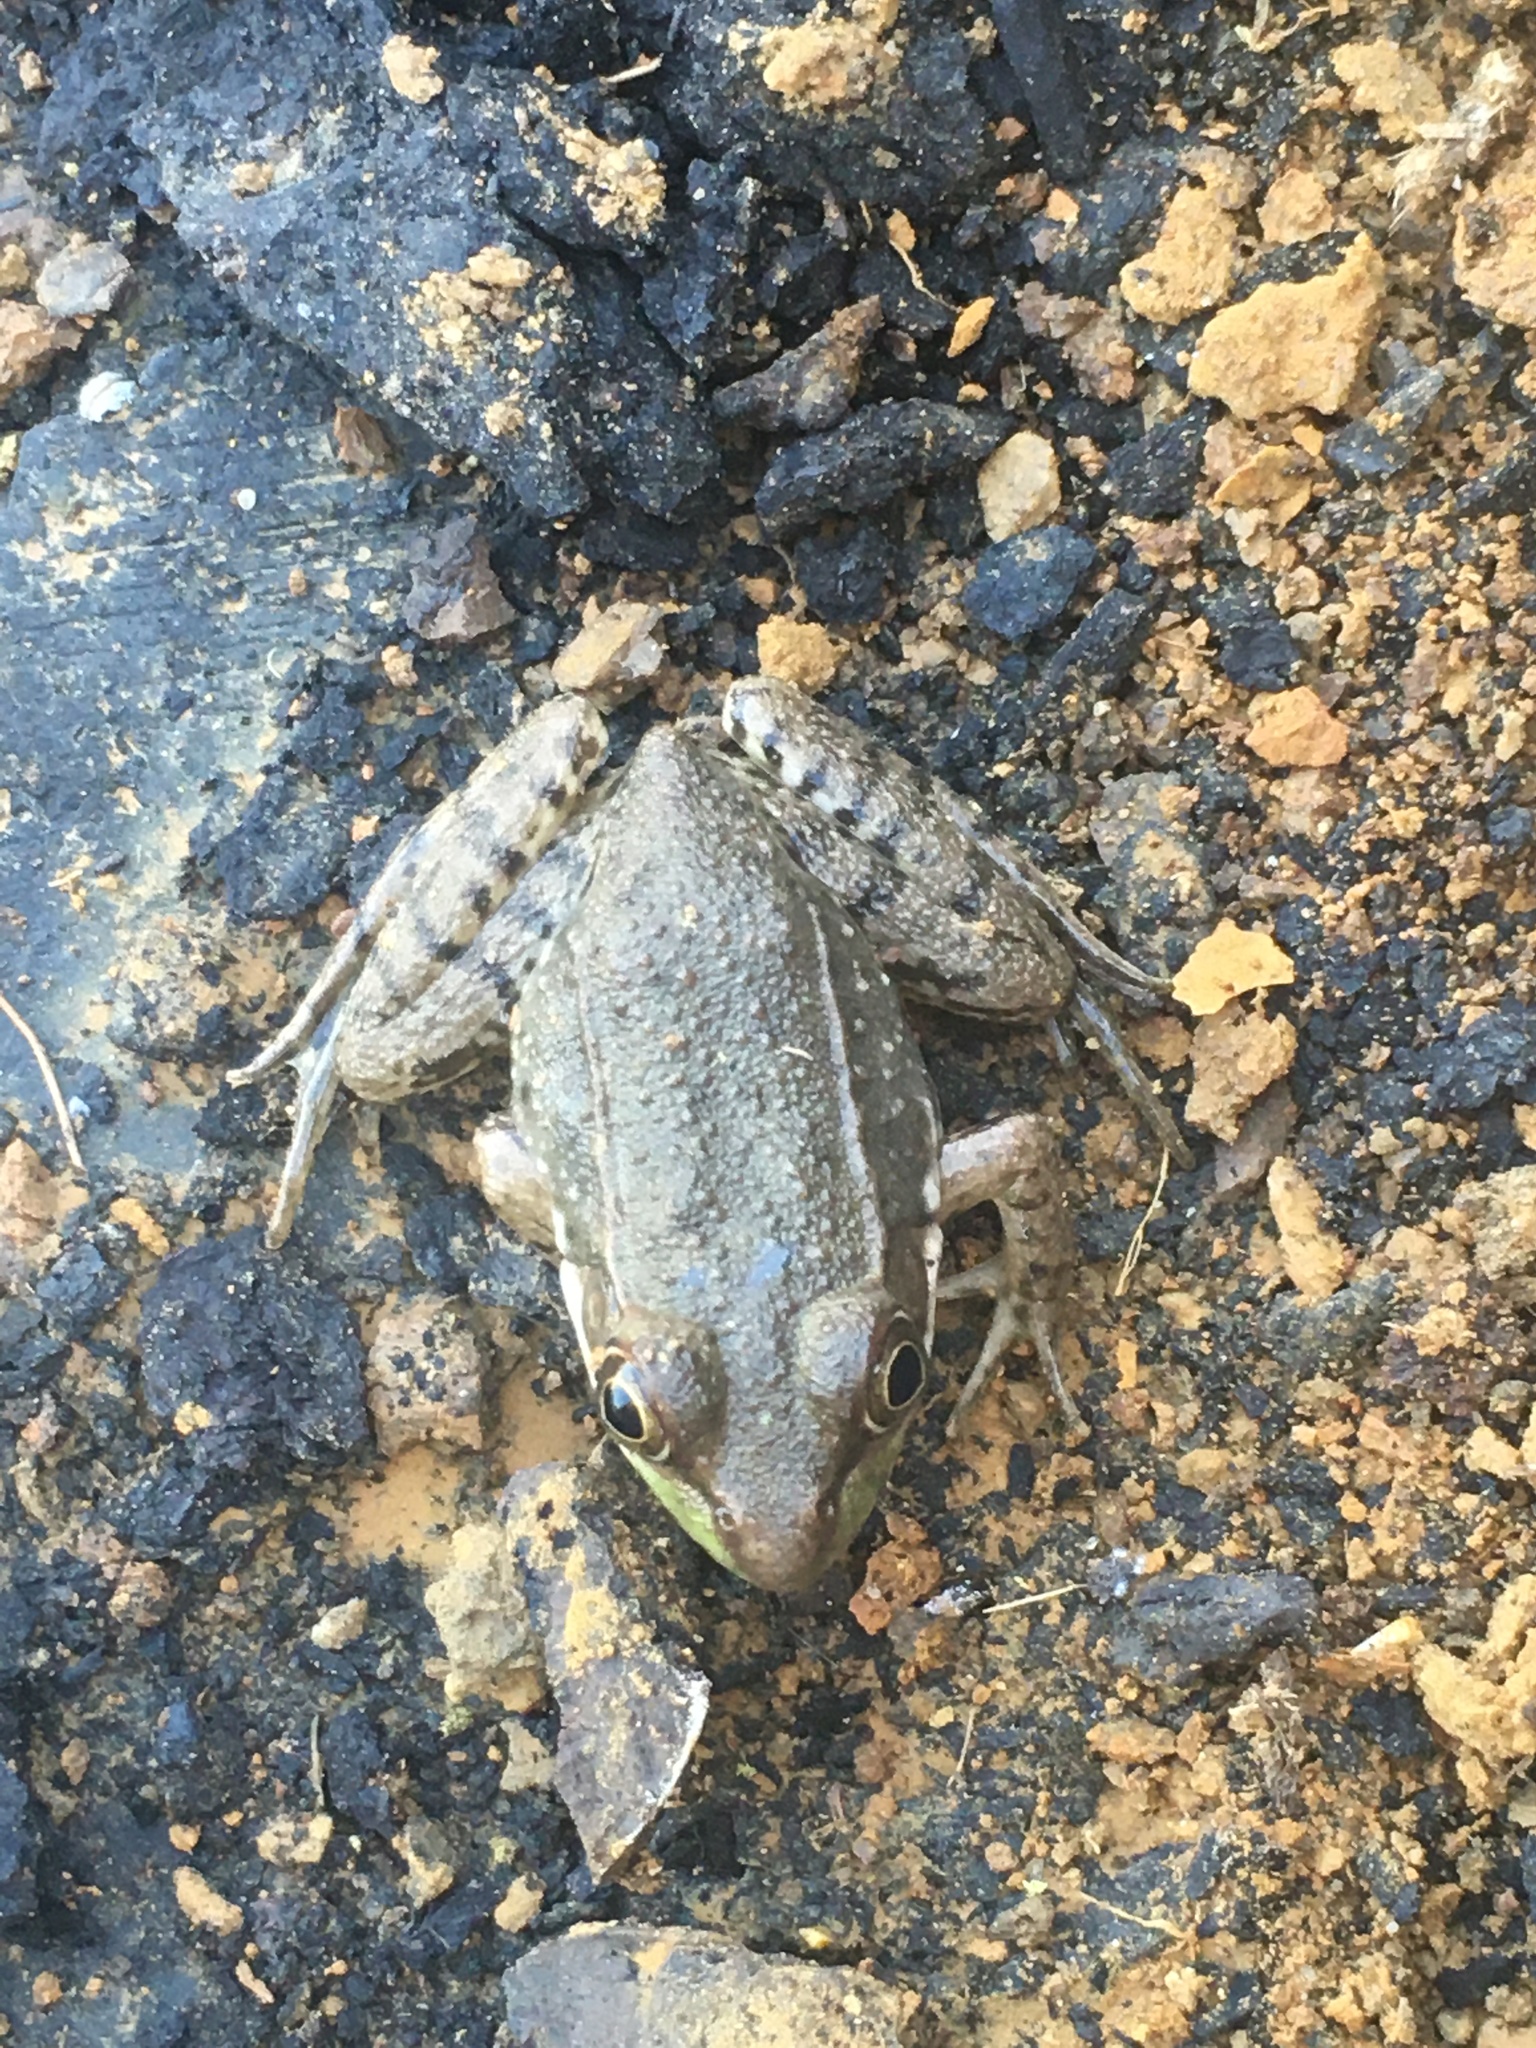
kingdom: Animalia
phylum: Chordata
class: Amphibia
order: Anura
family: Ranidae
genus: Lithobates
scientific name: Lithobates clamitans
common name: Green frog
